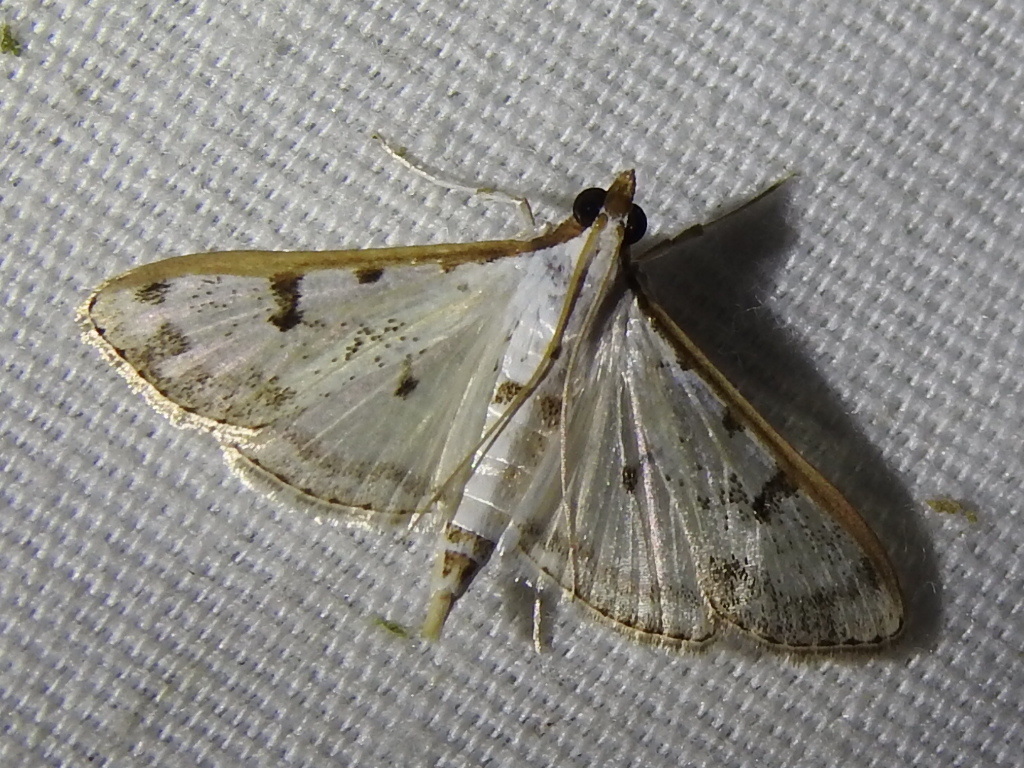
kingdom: Animalia
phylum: Arthropoda
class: Insecta
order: Lepidoptera
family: Crambidae
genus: Palpita
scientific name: Palpita gracilalis
